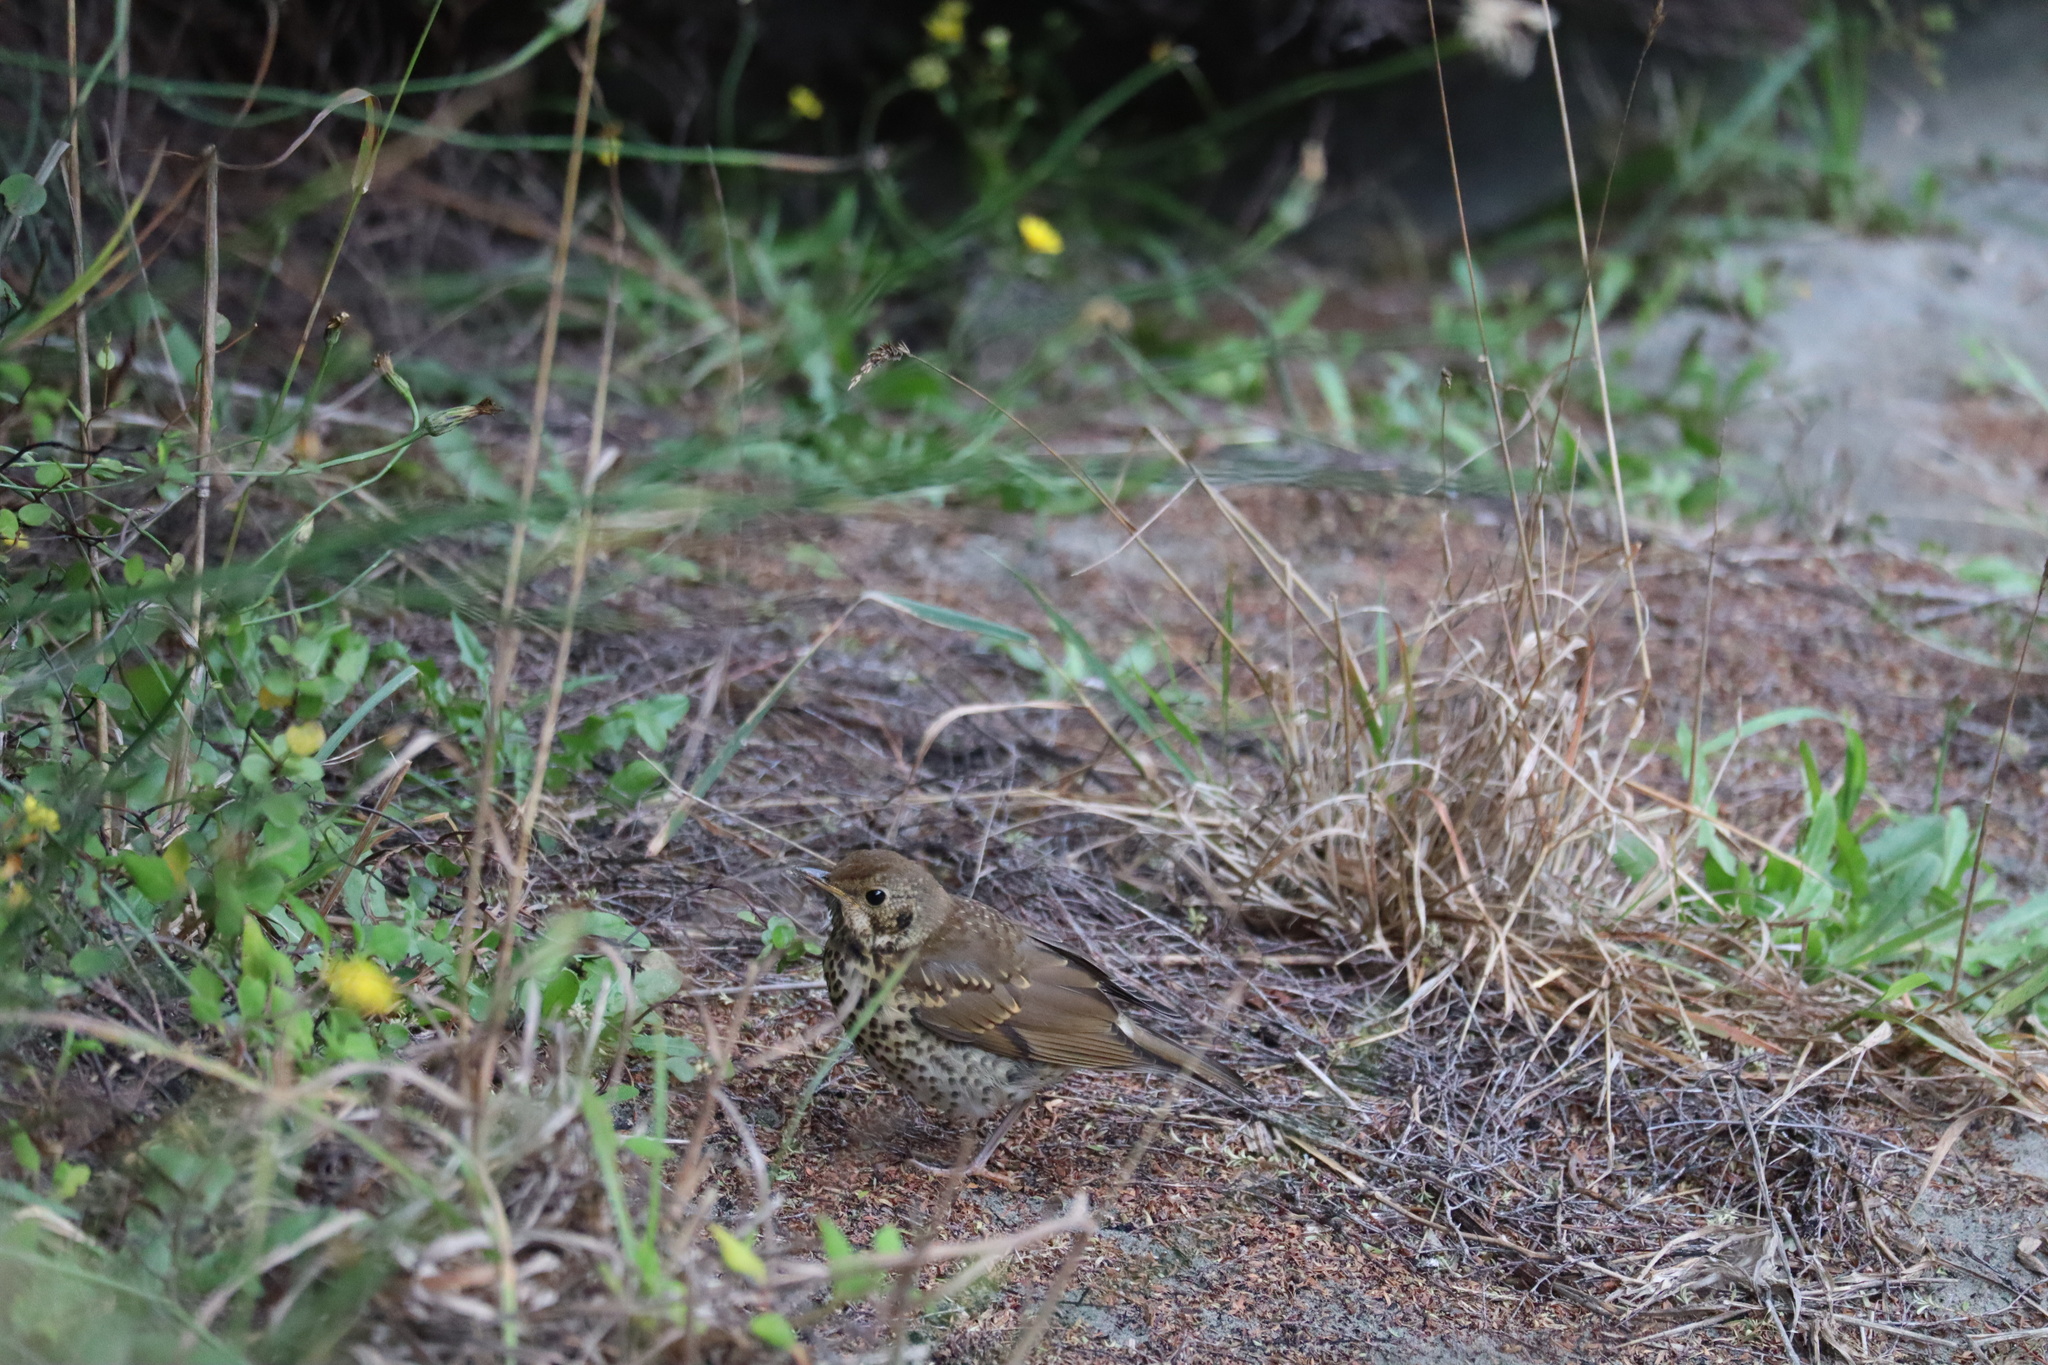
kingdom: Animalia
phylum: Chordata
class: Aves
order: Passeriformes
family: Turdidae
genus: Turdus
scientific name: Turdus philomelos
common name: Song thrush
